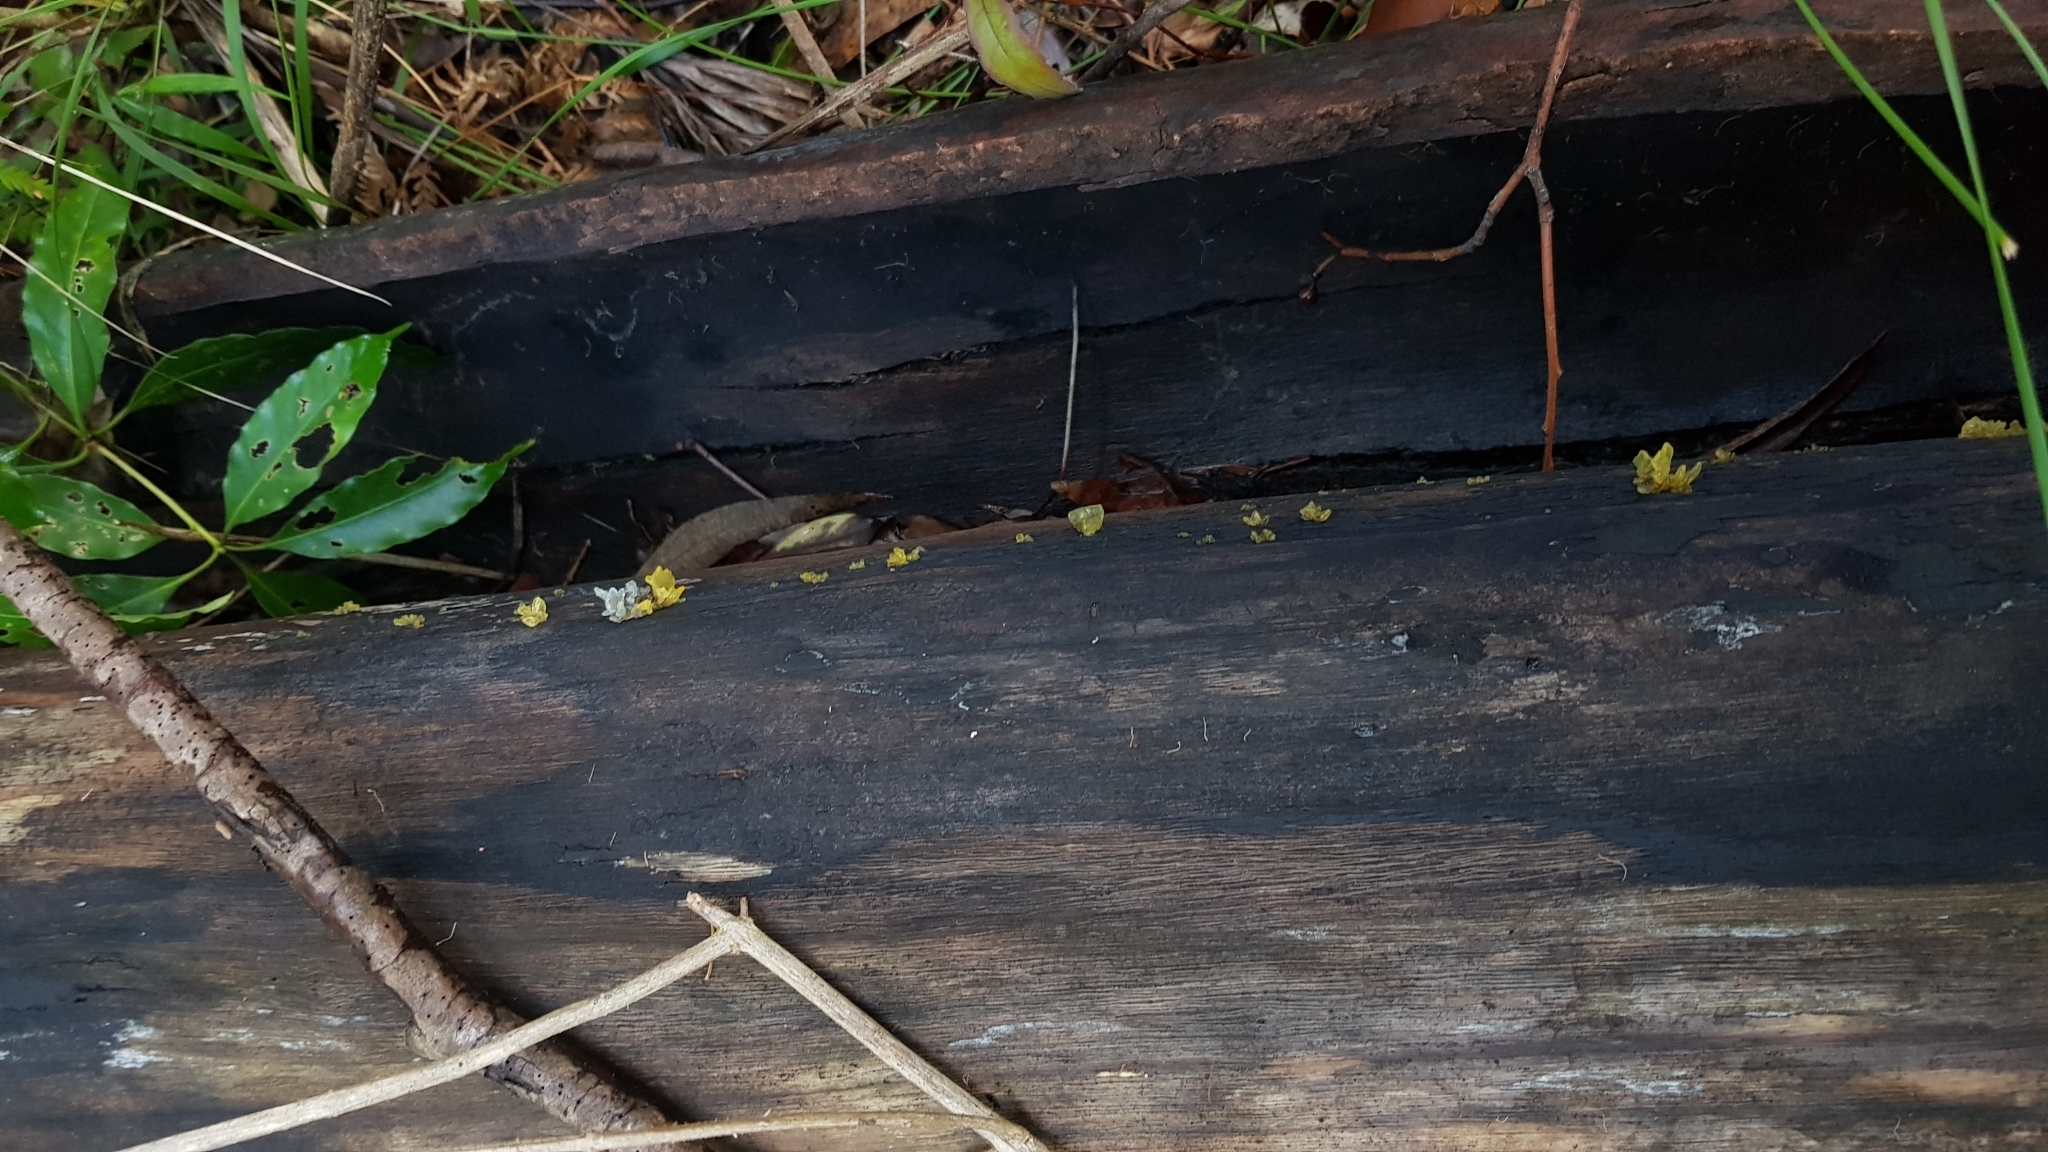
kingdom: Fungi
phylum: Basidiomycota
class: Tremellomycetes
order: Tremellales
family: Tremellaceae
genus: Tremella
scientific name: Tremella fuciformis
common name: Snow fungus
